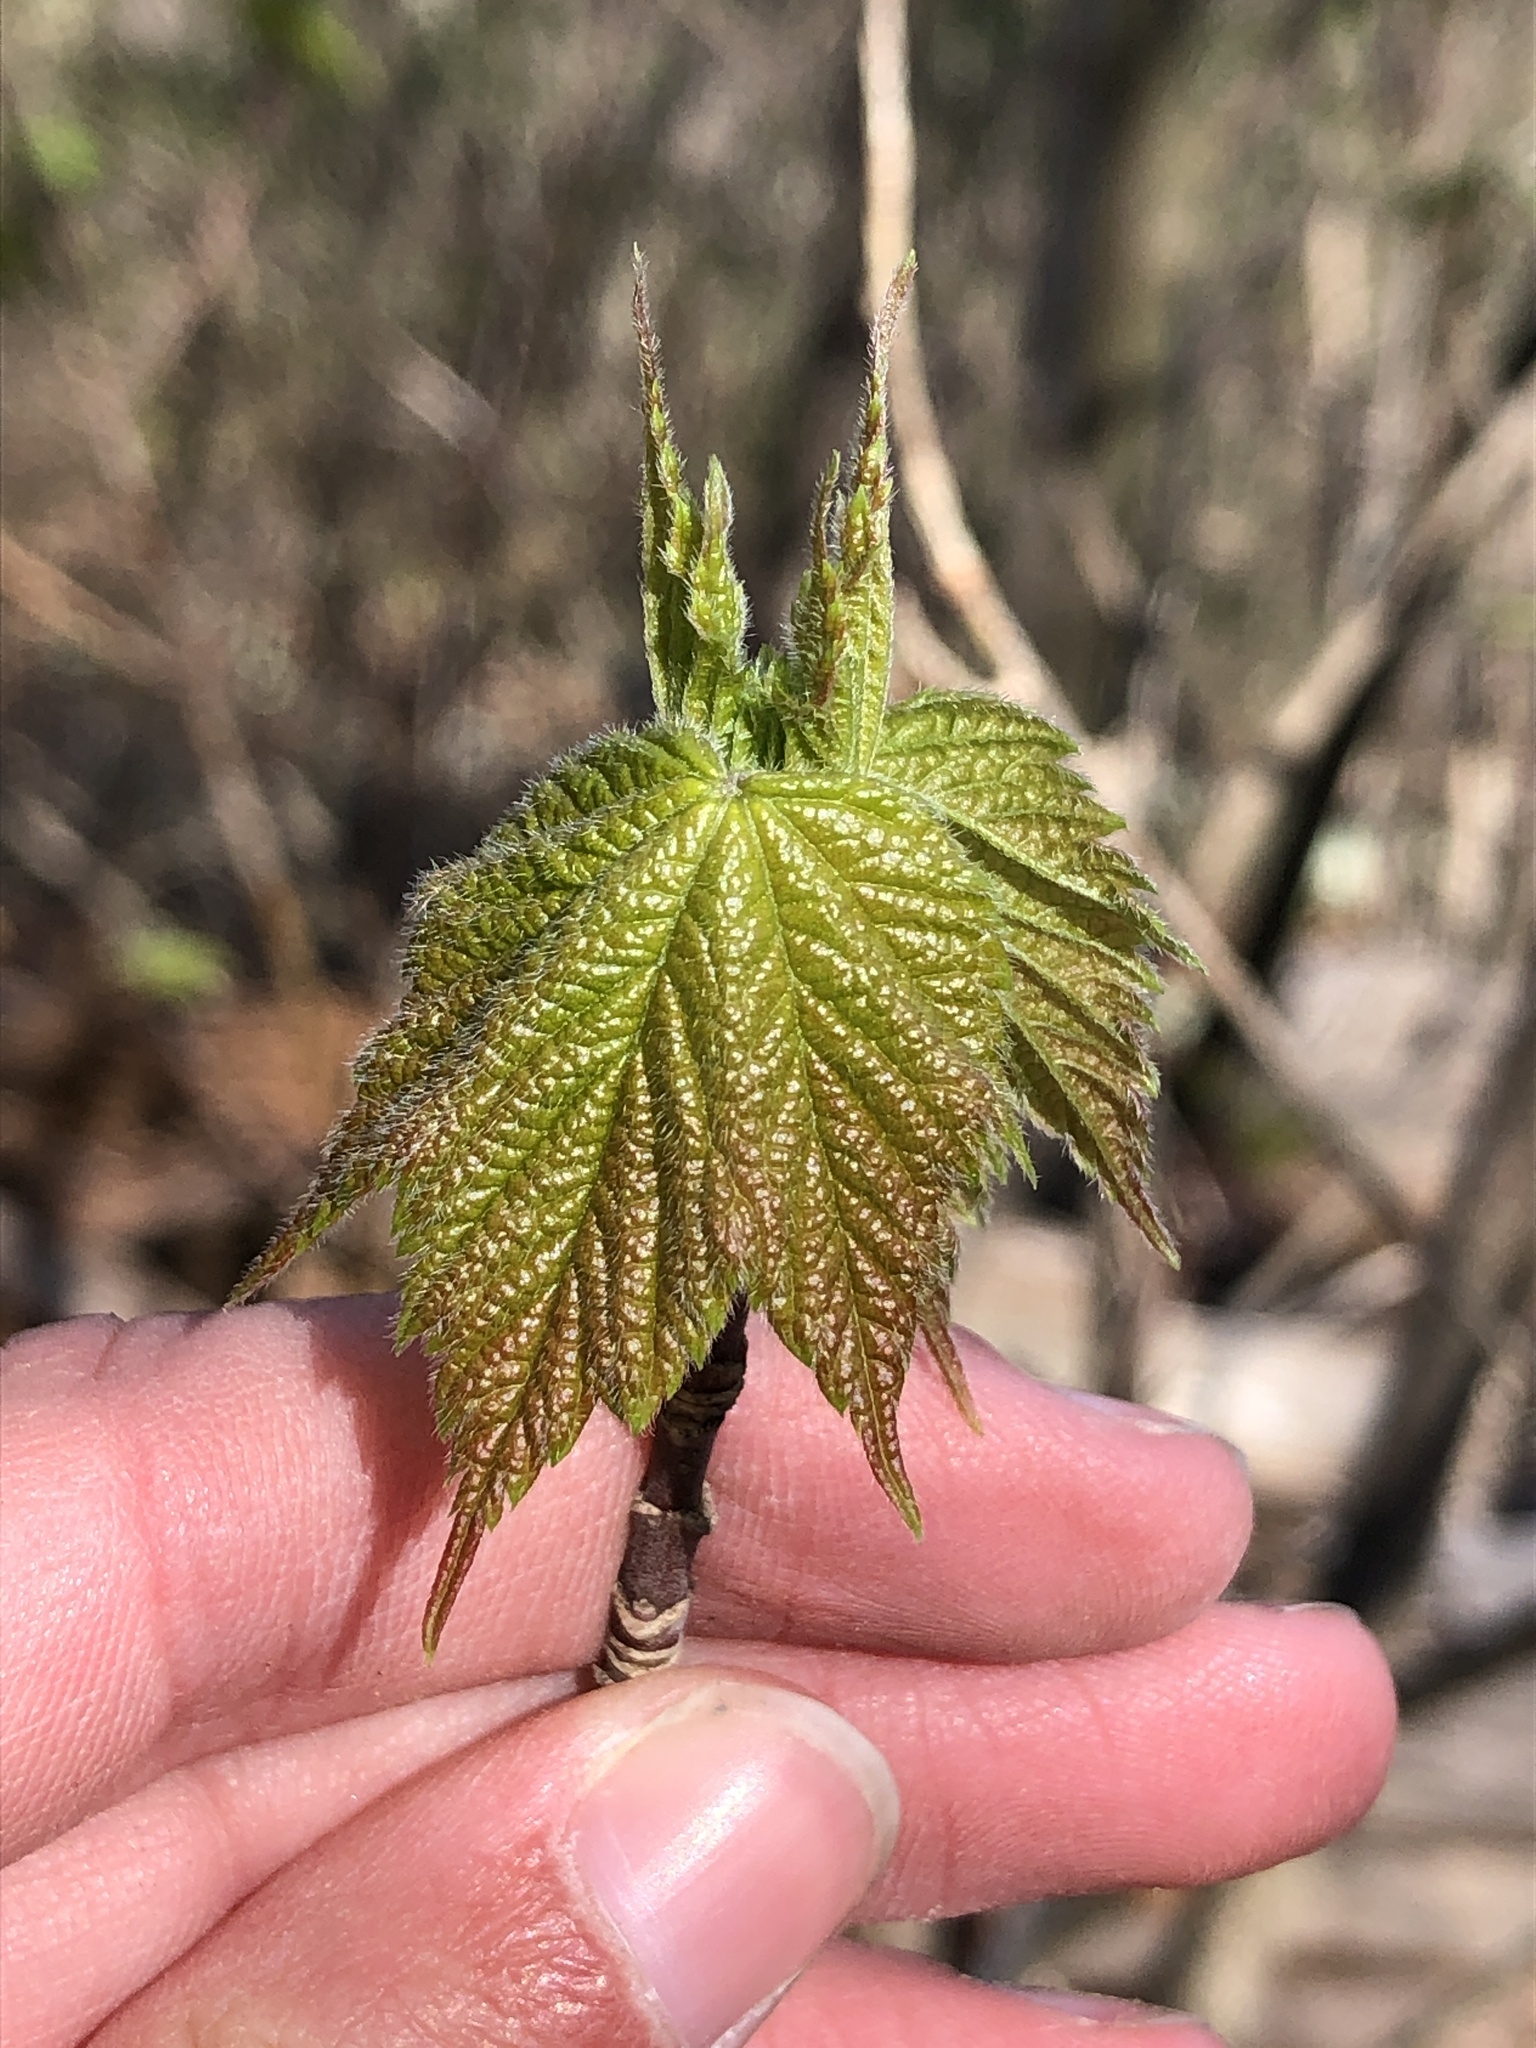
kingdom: Plantae
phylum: Tracheophyta
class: Magnoliopsida
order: Sapindales
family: Sapindaceae
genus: Acer
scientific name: Acer pensylvanicum
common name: Moosewood
